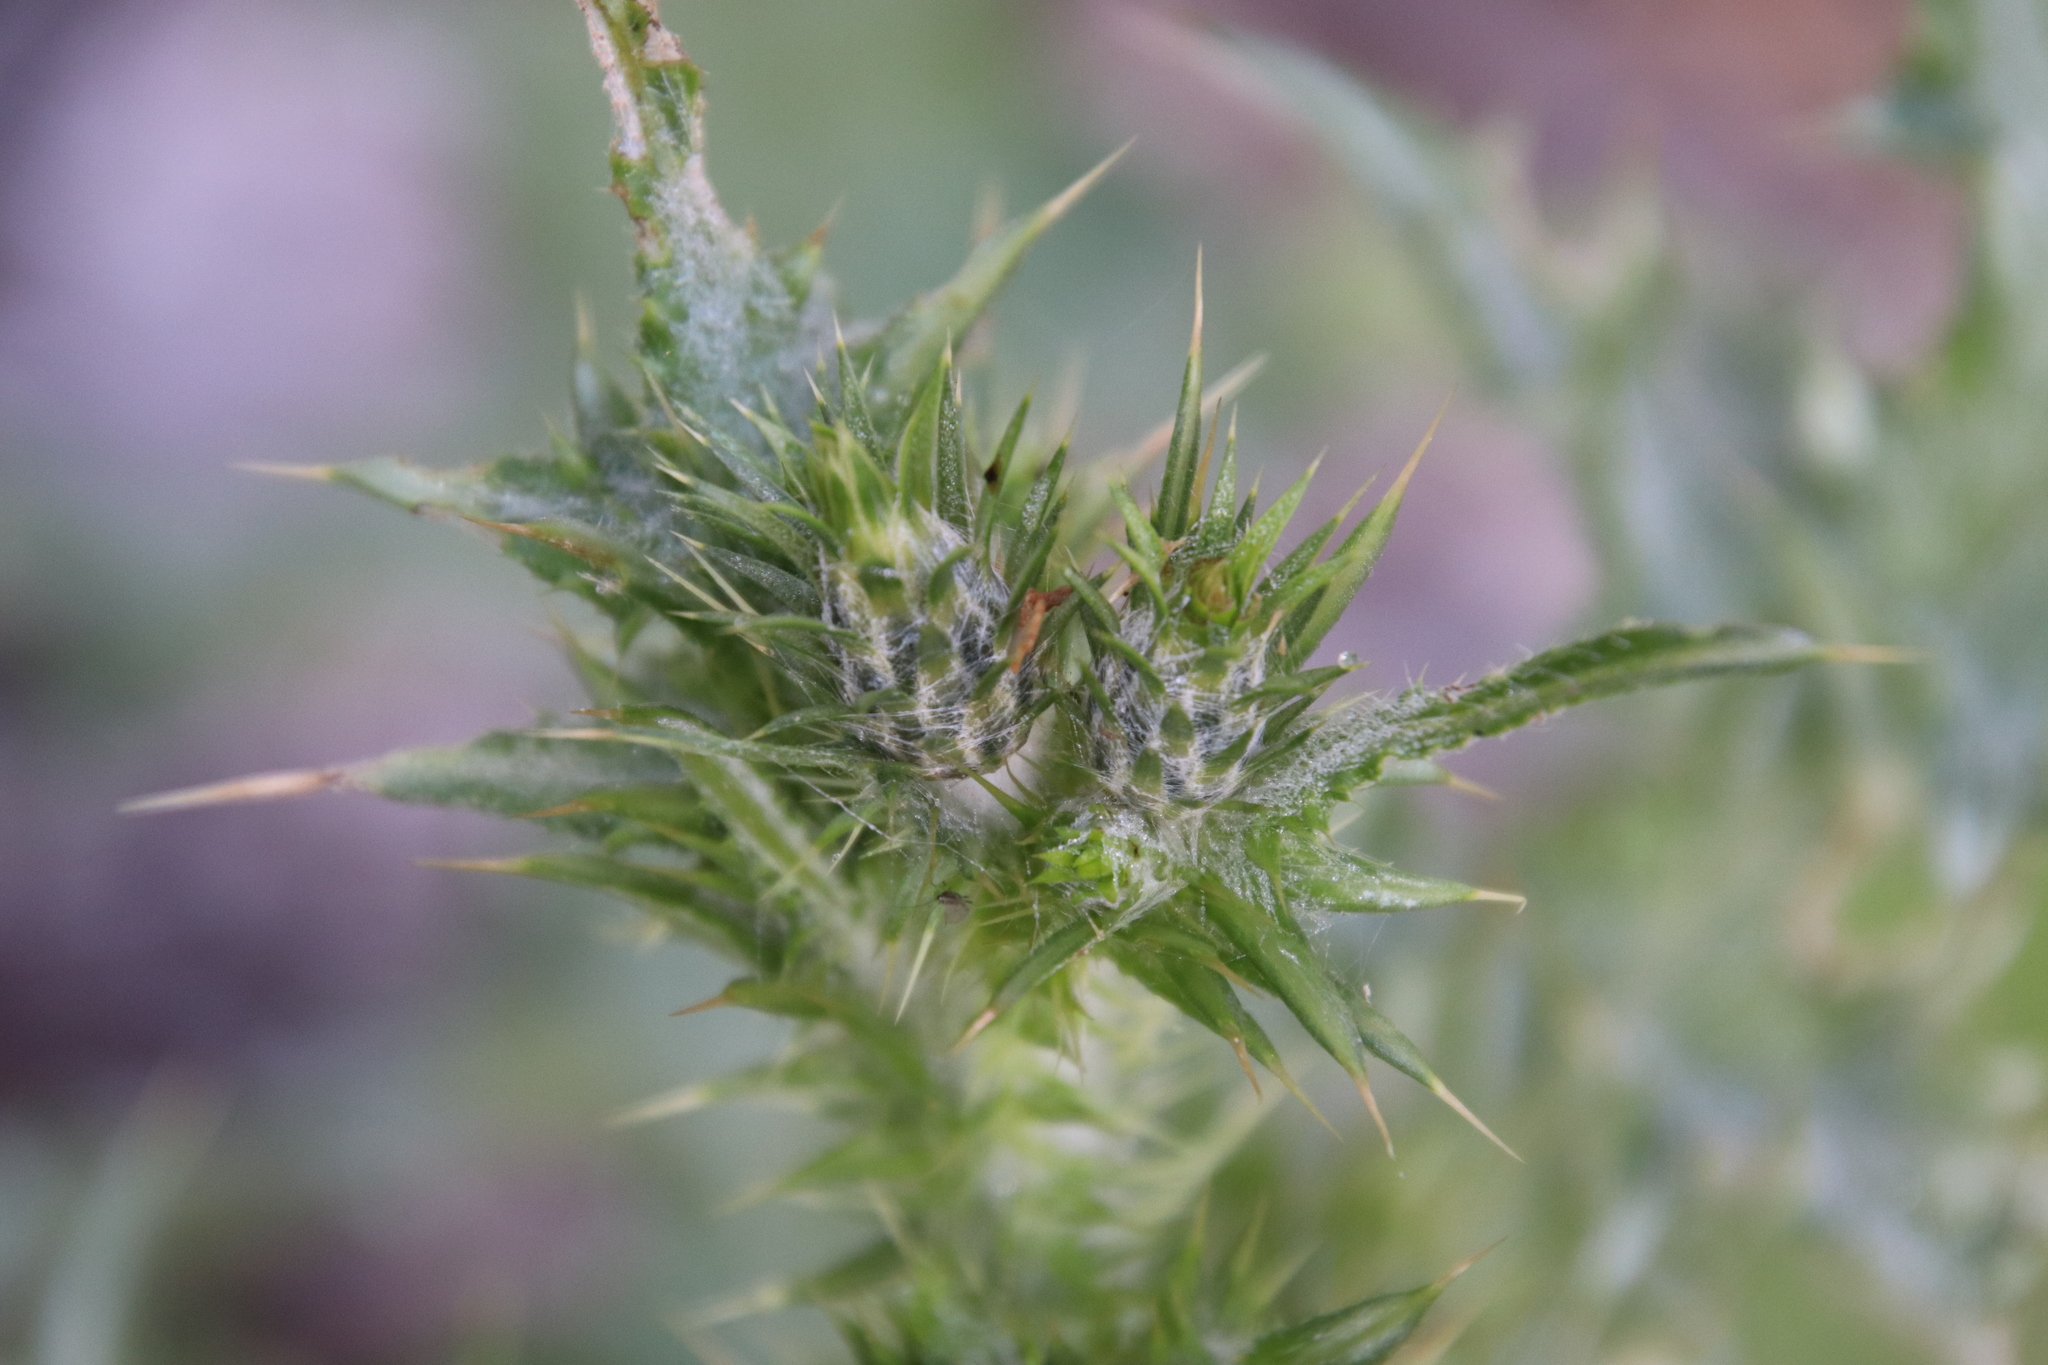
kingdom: Plantae
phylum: Tracheophyta
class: Magnoliopsida
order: Asterales
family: Asteraceae
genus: Carduus
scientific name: Carduus pycnocephalus
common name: Plymouth thistle
